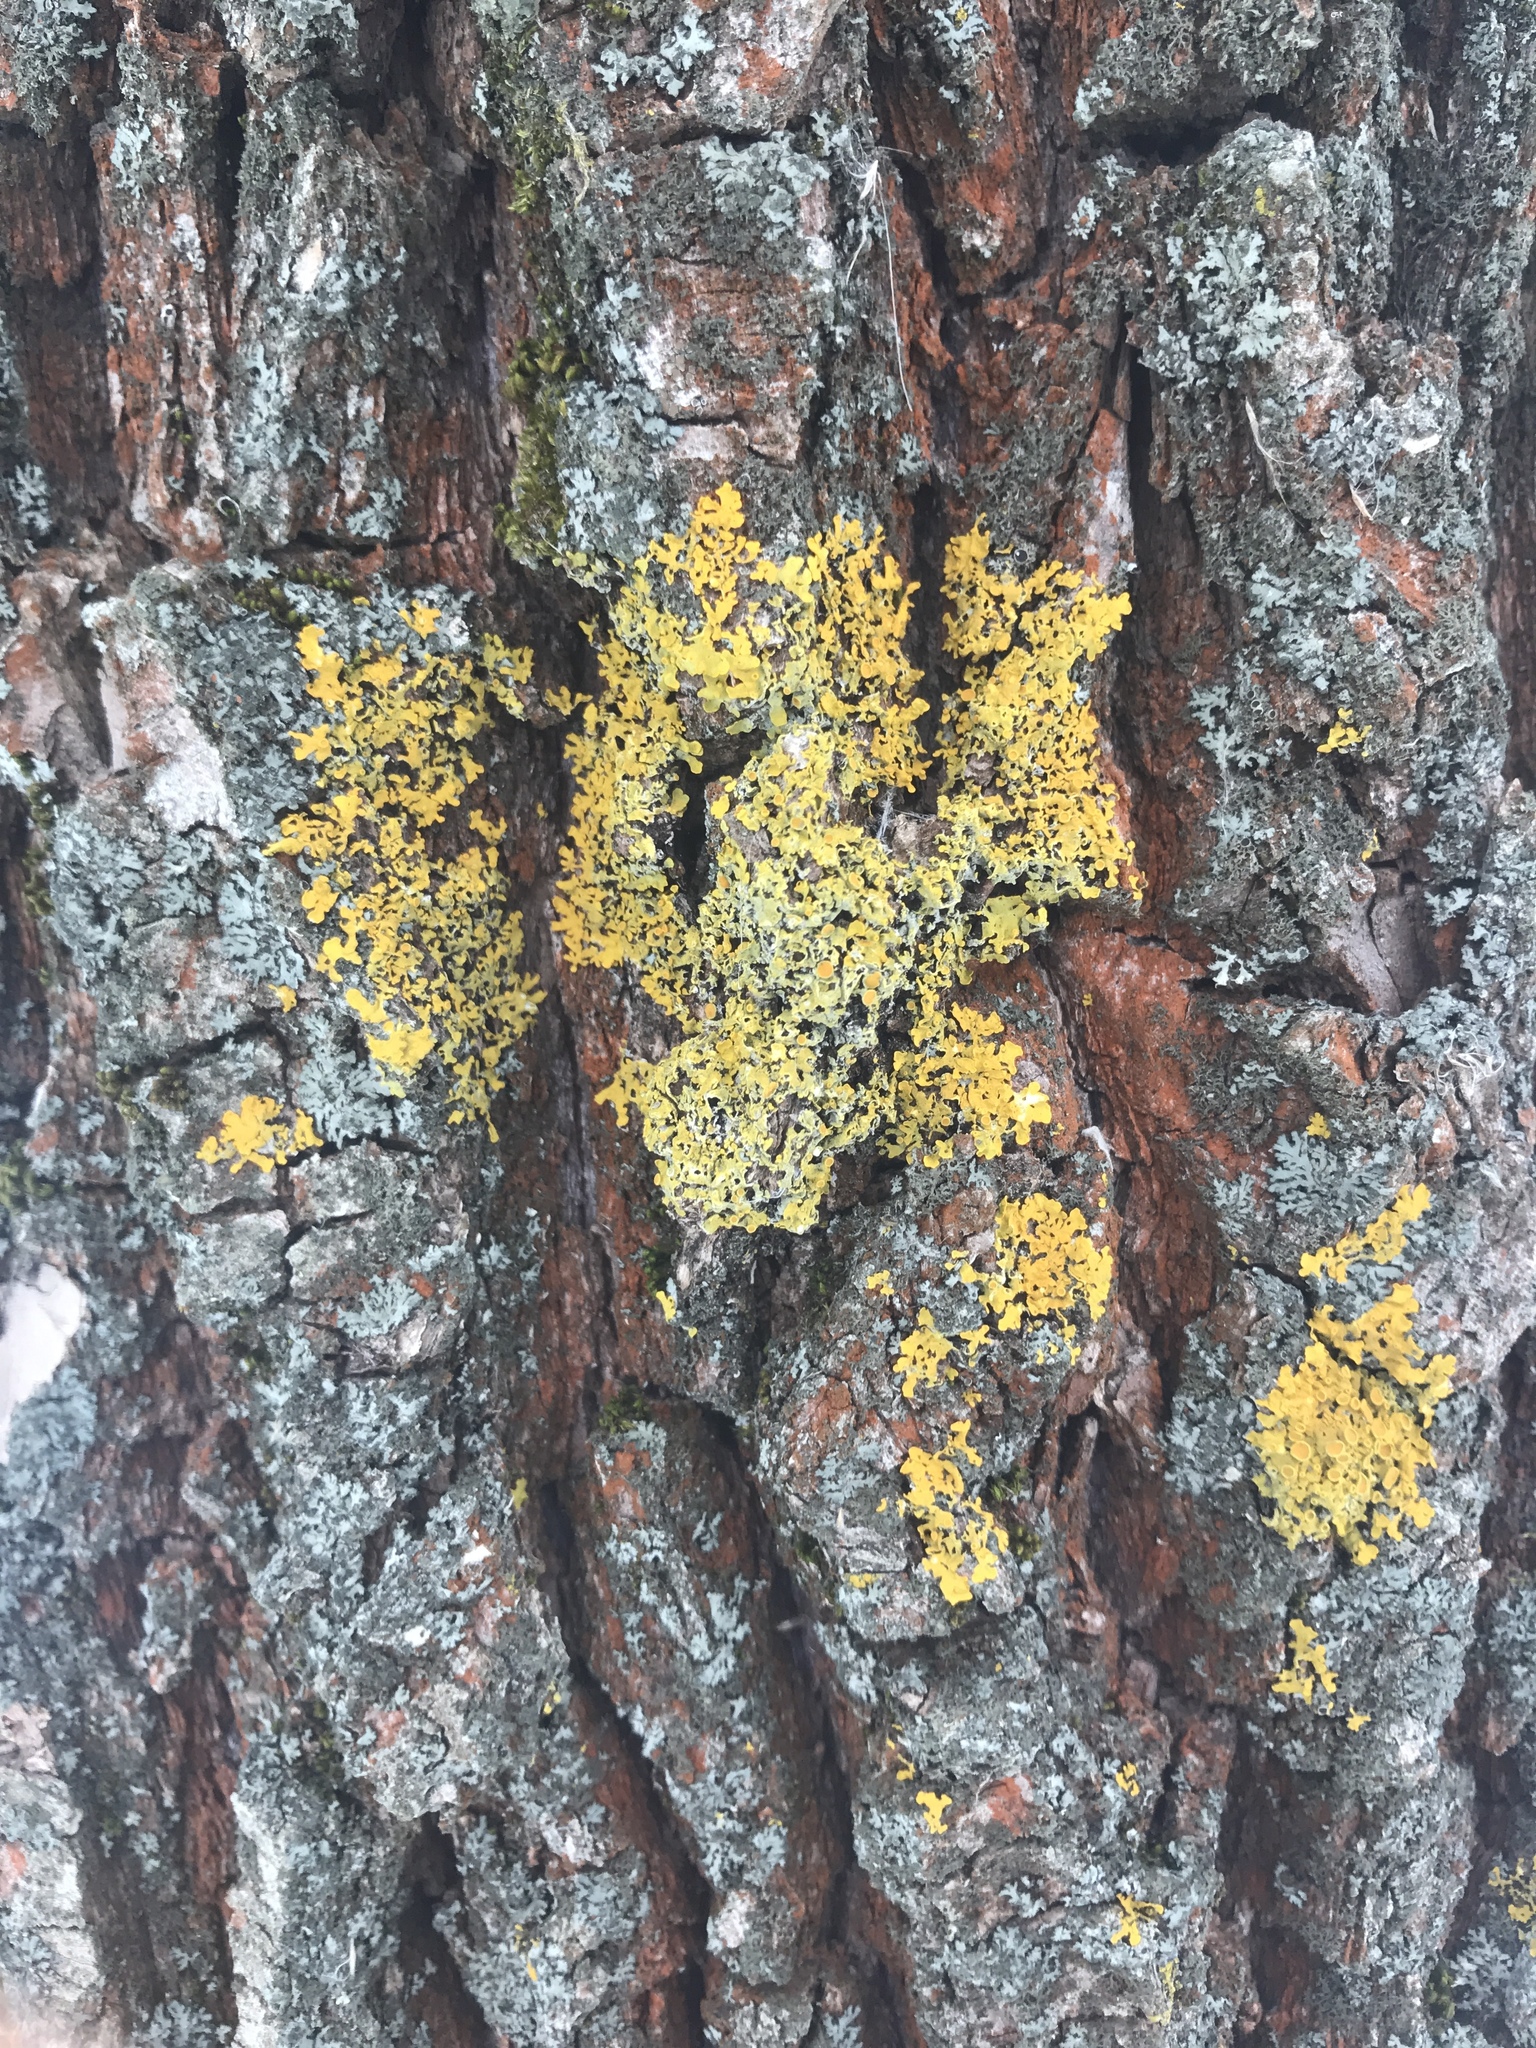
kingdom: Fungi
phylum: Ascomycota
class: Lecanoromycetes
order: Teloschistales
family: Teloschistaceae
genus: Xanthoria
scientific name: Xanthoria parietina
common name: Common orange lichen
